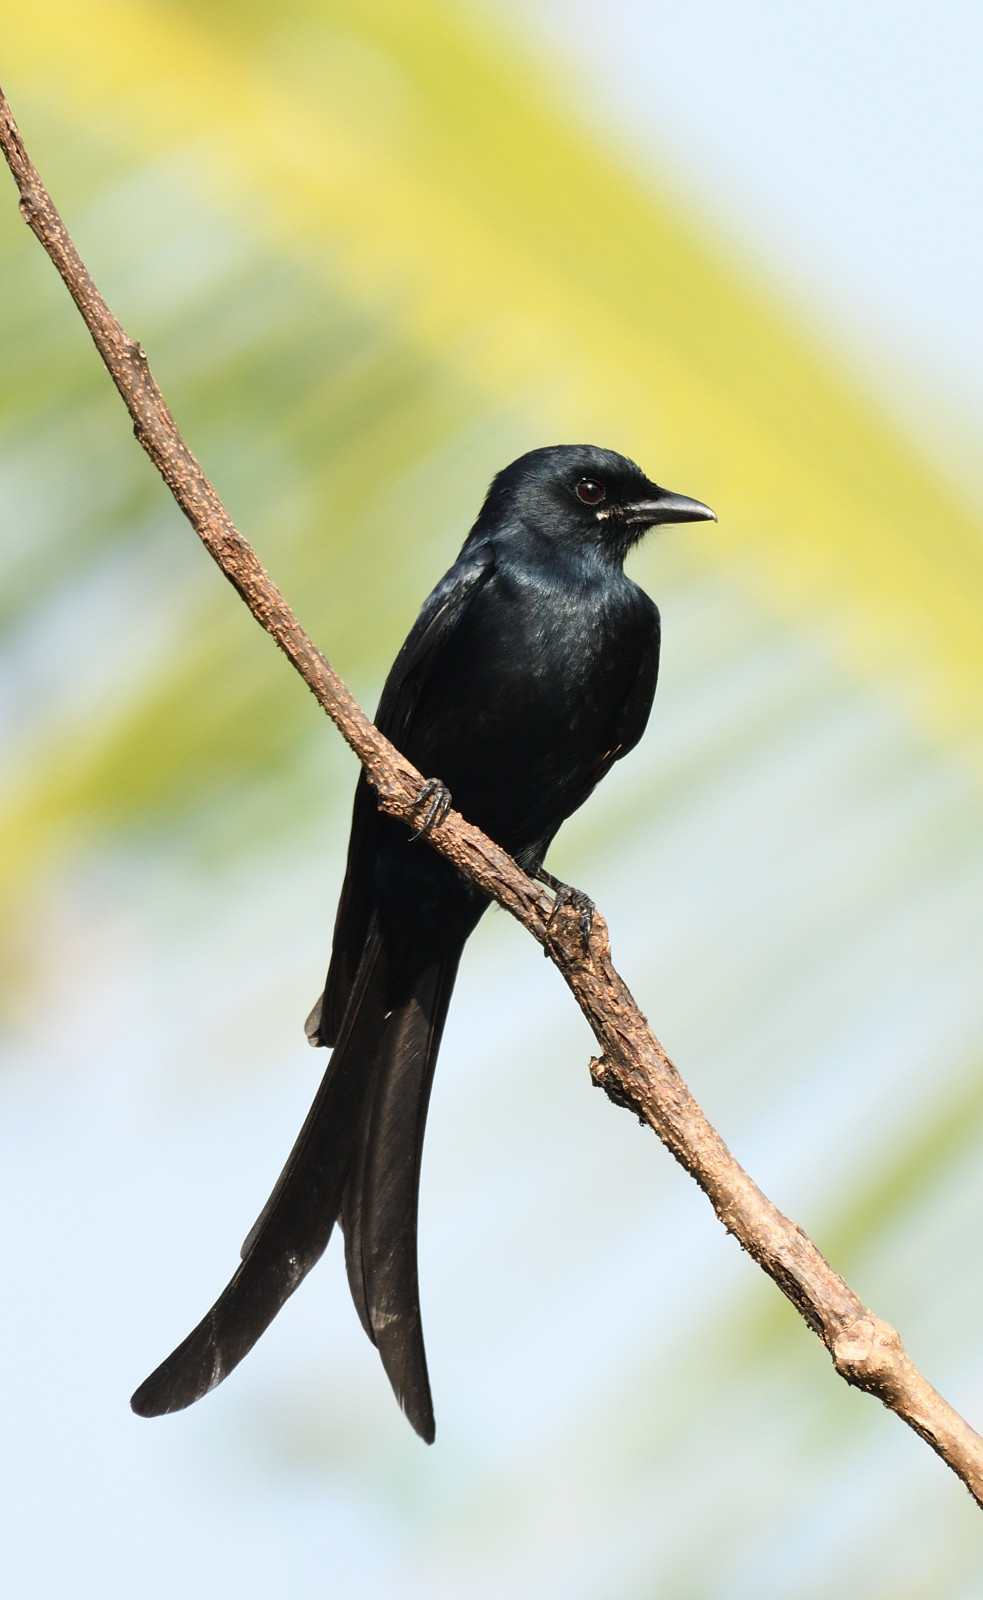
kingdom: Animalia
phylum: Chordata
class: Aves
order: Passeriformes
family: Dicruridae
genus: Dicrurus
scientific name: Dicrurus macrocercus
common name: Black drongo
